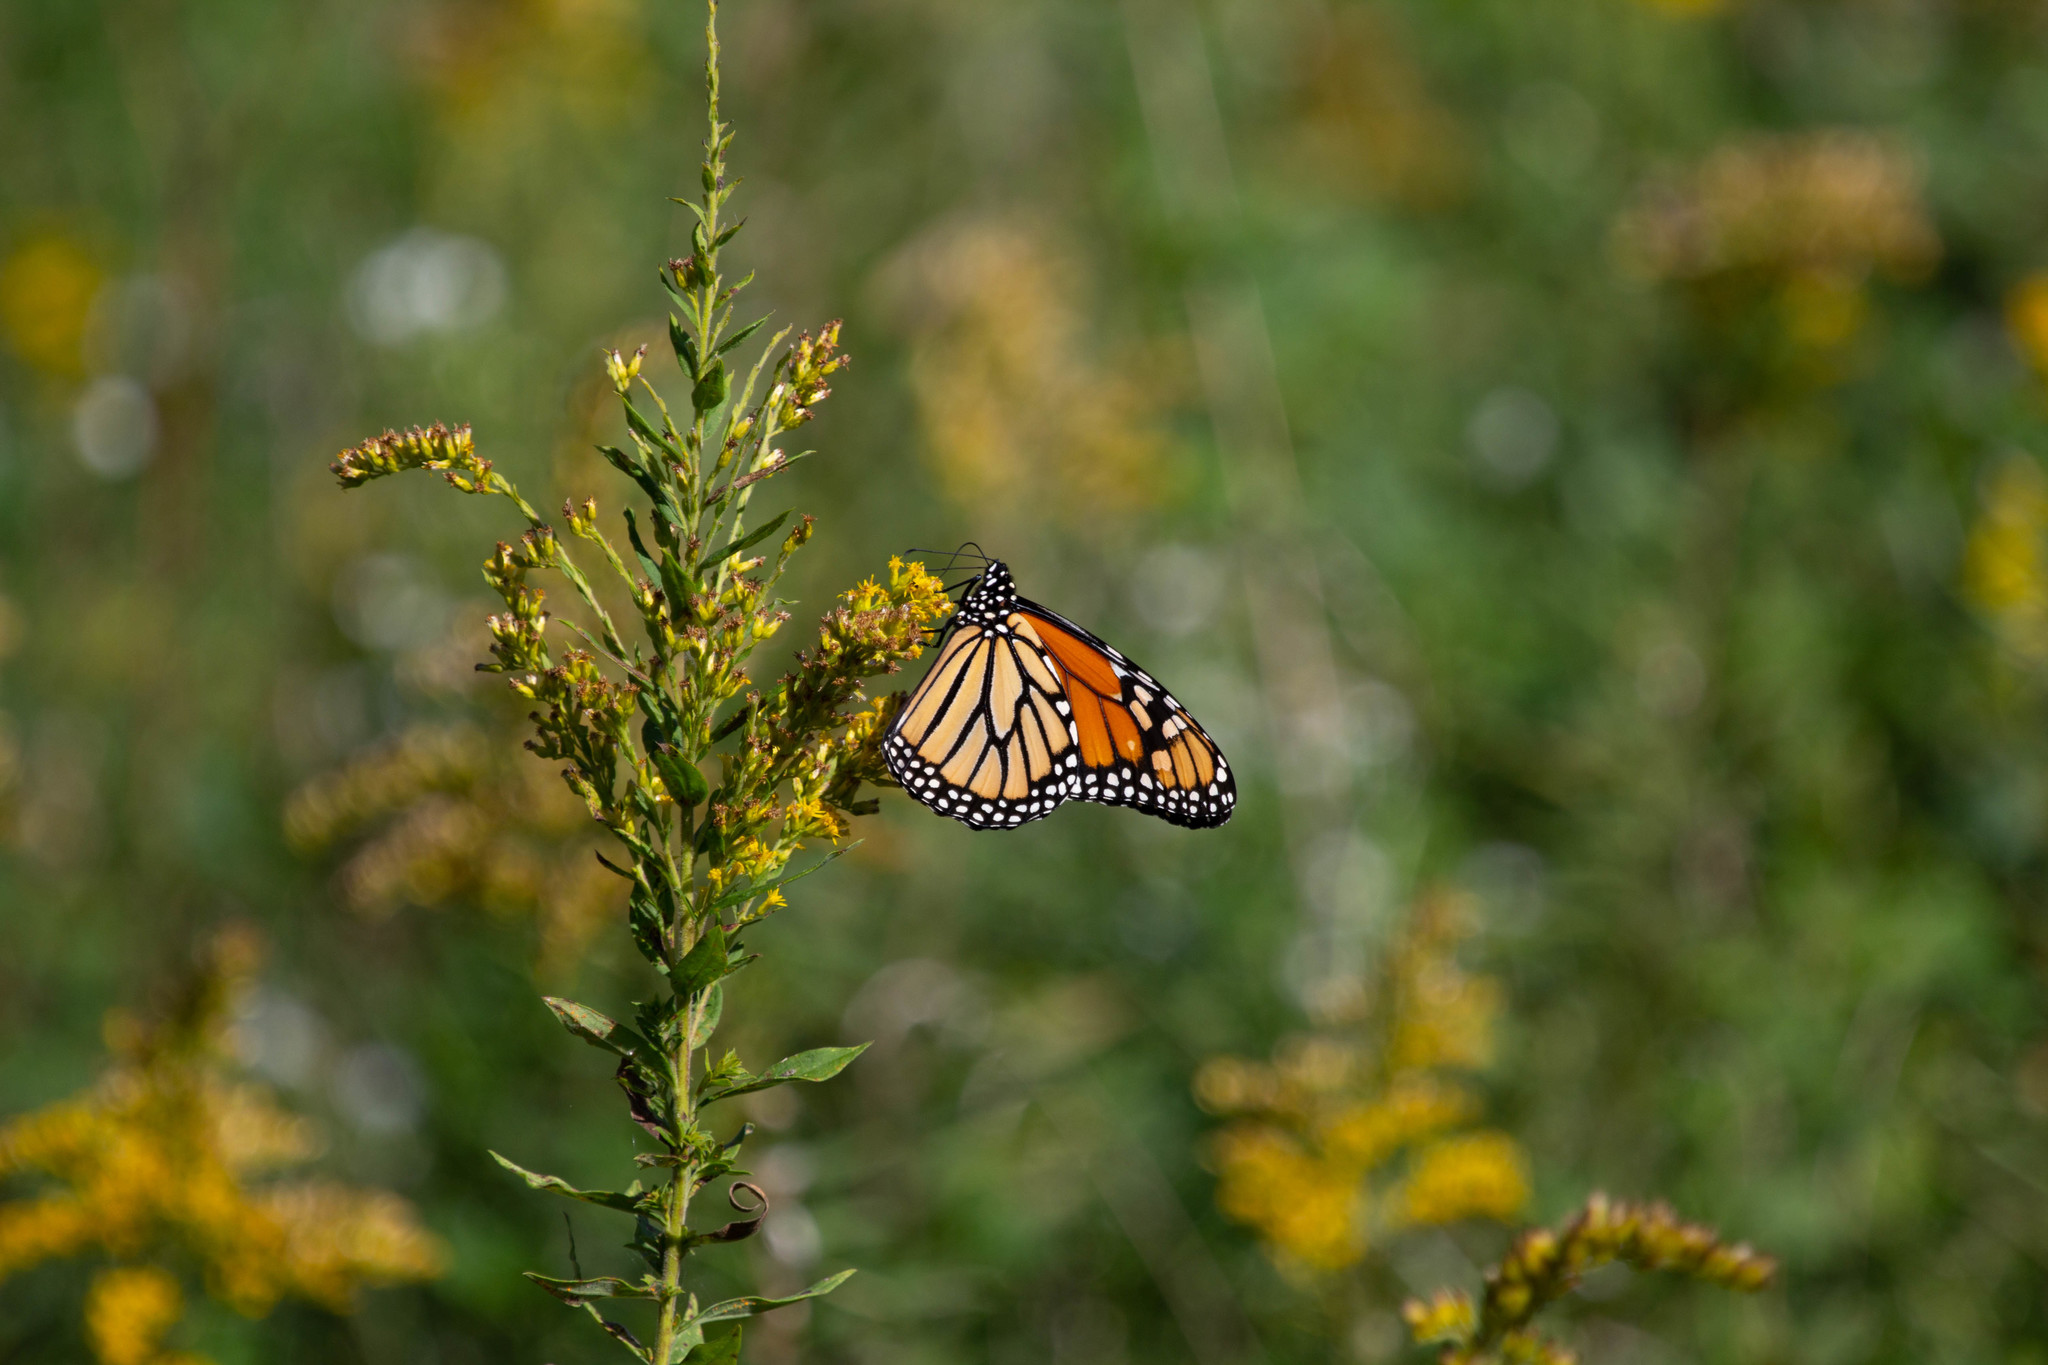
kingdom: Animalia
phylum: Arthropoda
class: Insecta
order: Lepidoptera
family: Nymphalidae
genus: Danaus
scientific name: Danaus plexippus
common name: Monarch
